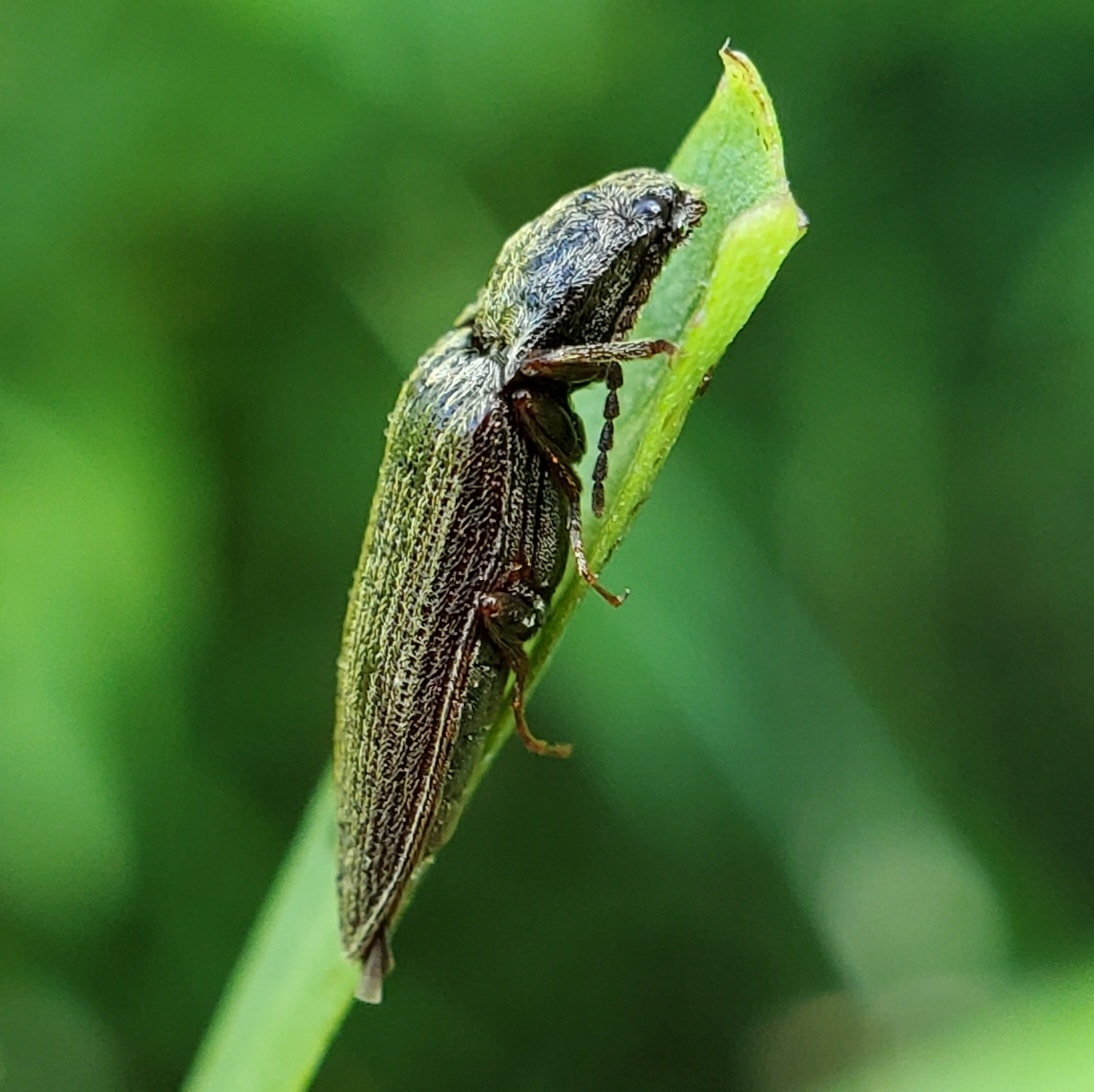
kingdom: Animalia
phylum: Arthropoda
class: Insecta
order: Coleoptera
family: Elateridae
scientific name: Elateridae
